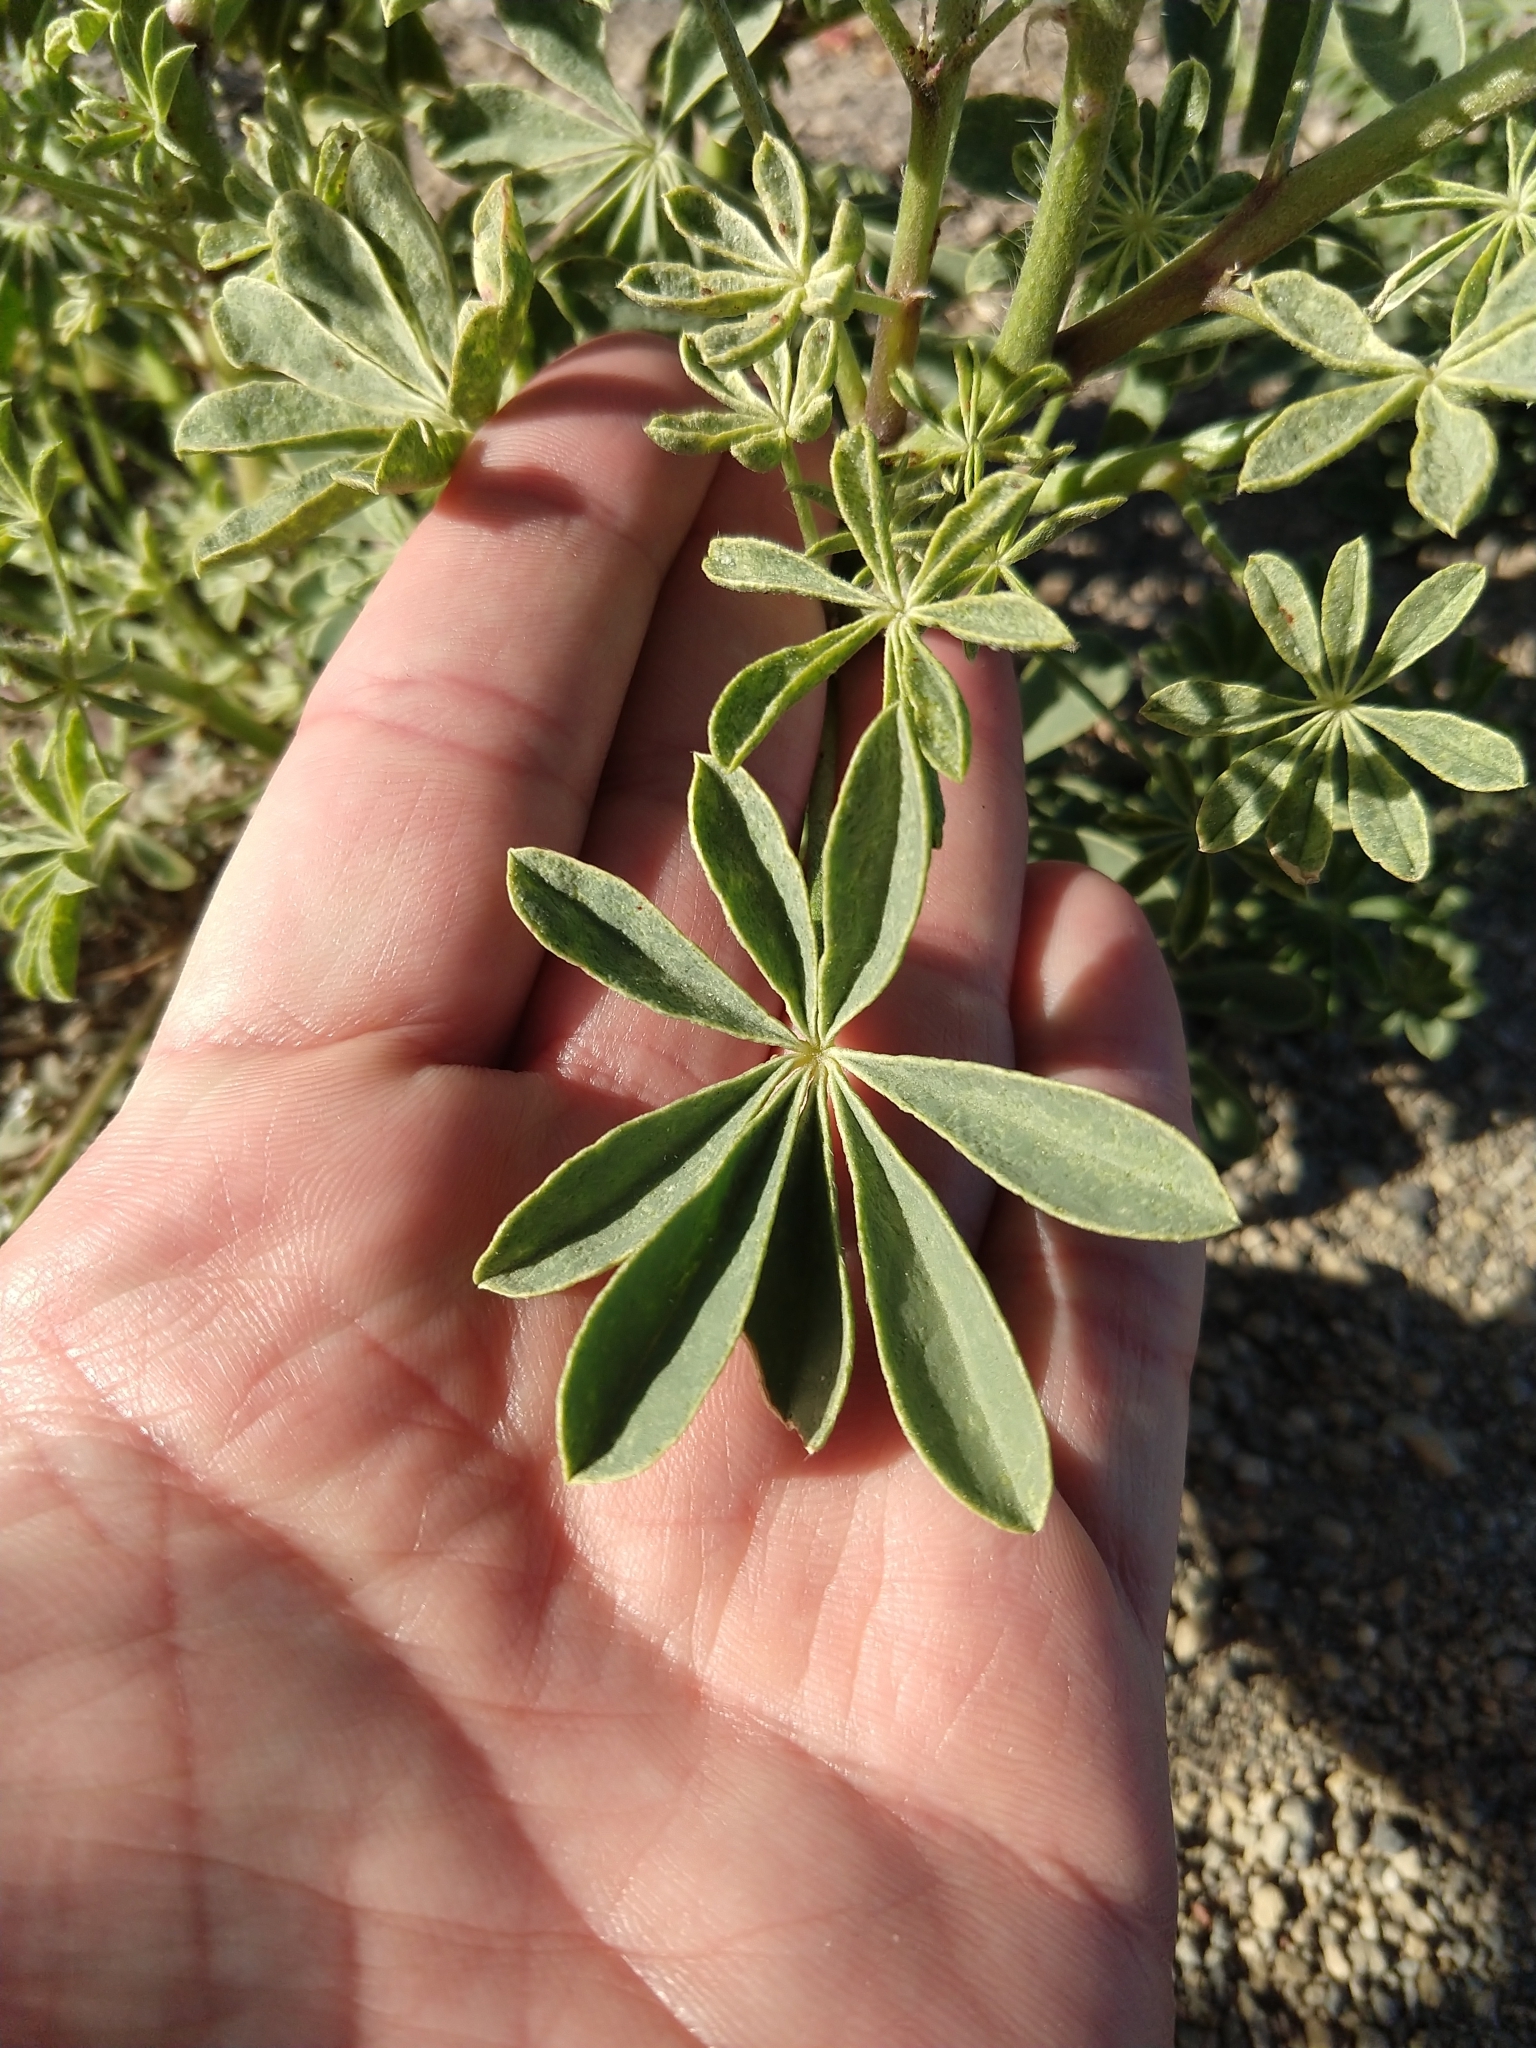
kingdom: Plantae
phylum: Tracheophyta
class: Magnoliopsida
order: Fabales
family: Fabaceae
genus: Lupinus
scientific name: Lupinus arizonicus
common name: Arizona lupine
